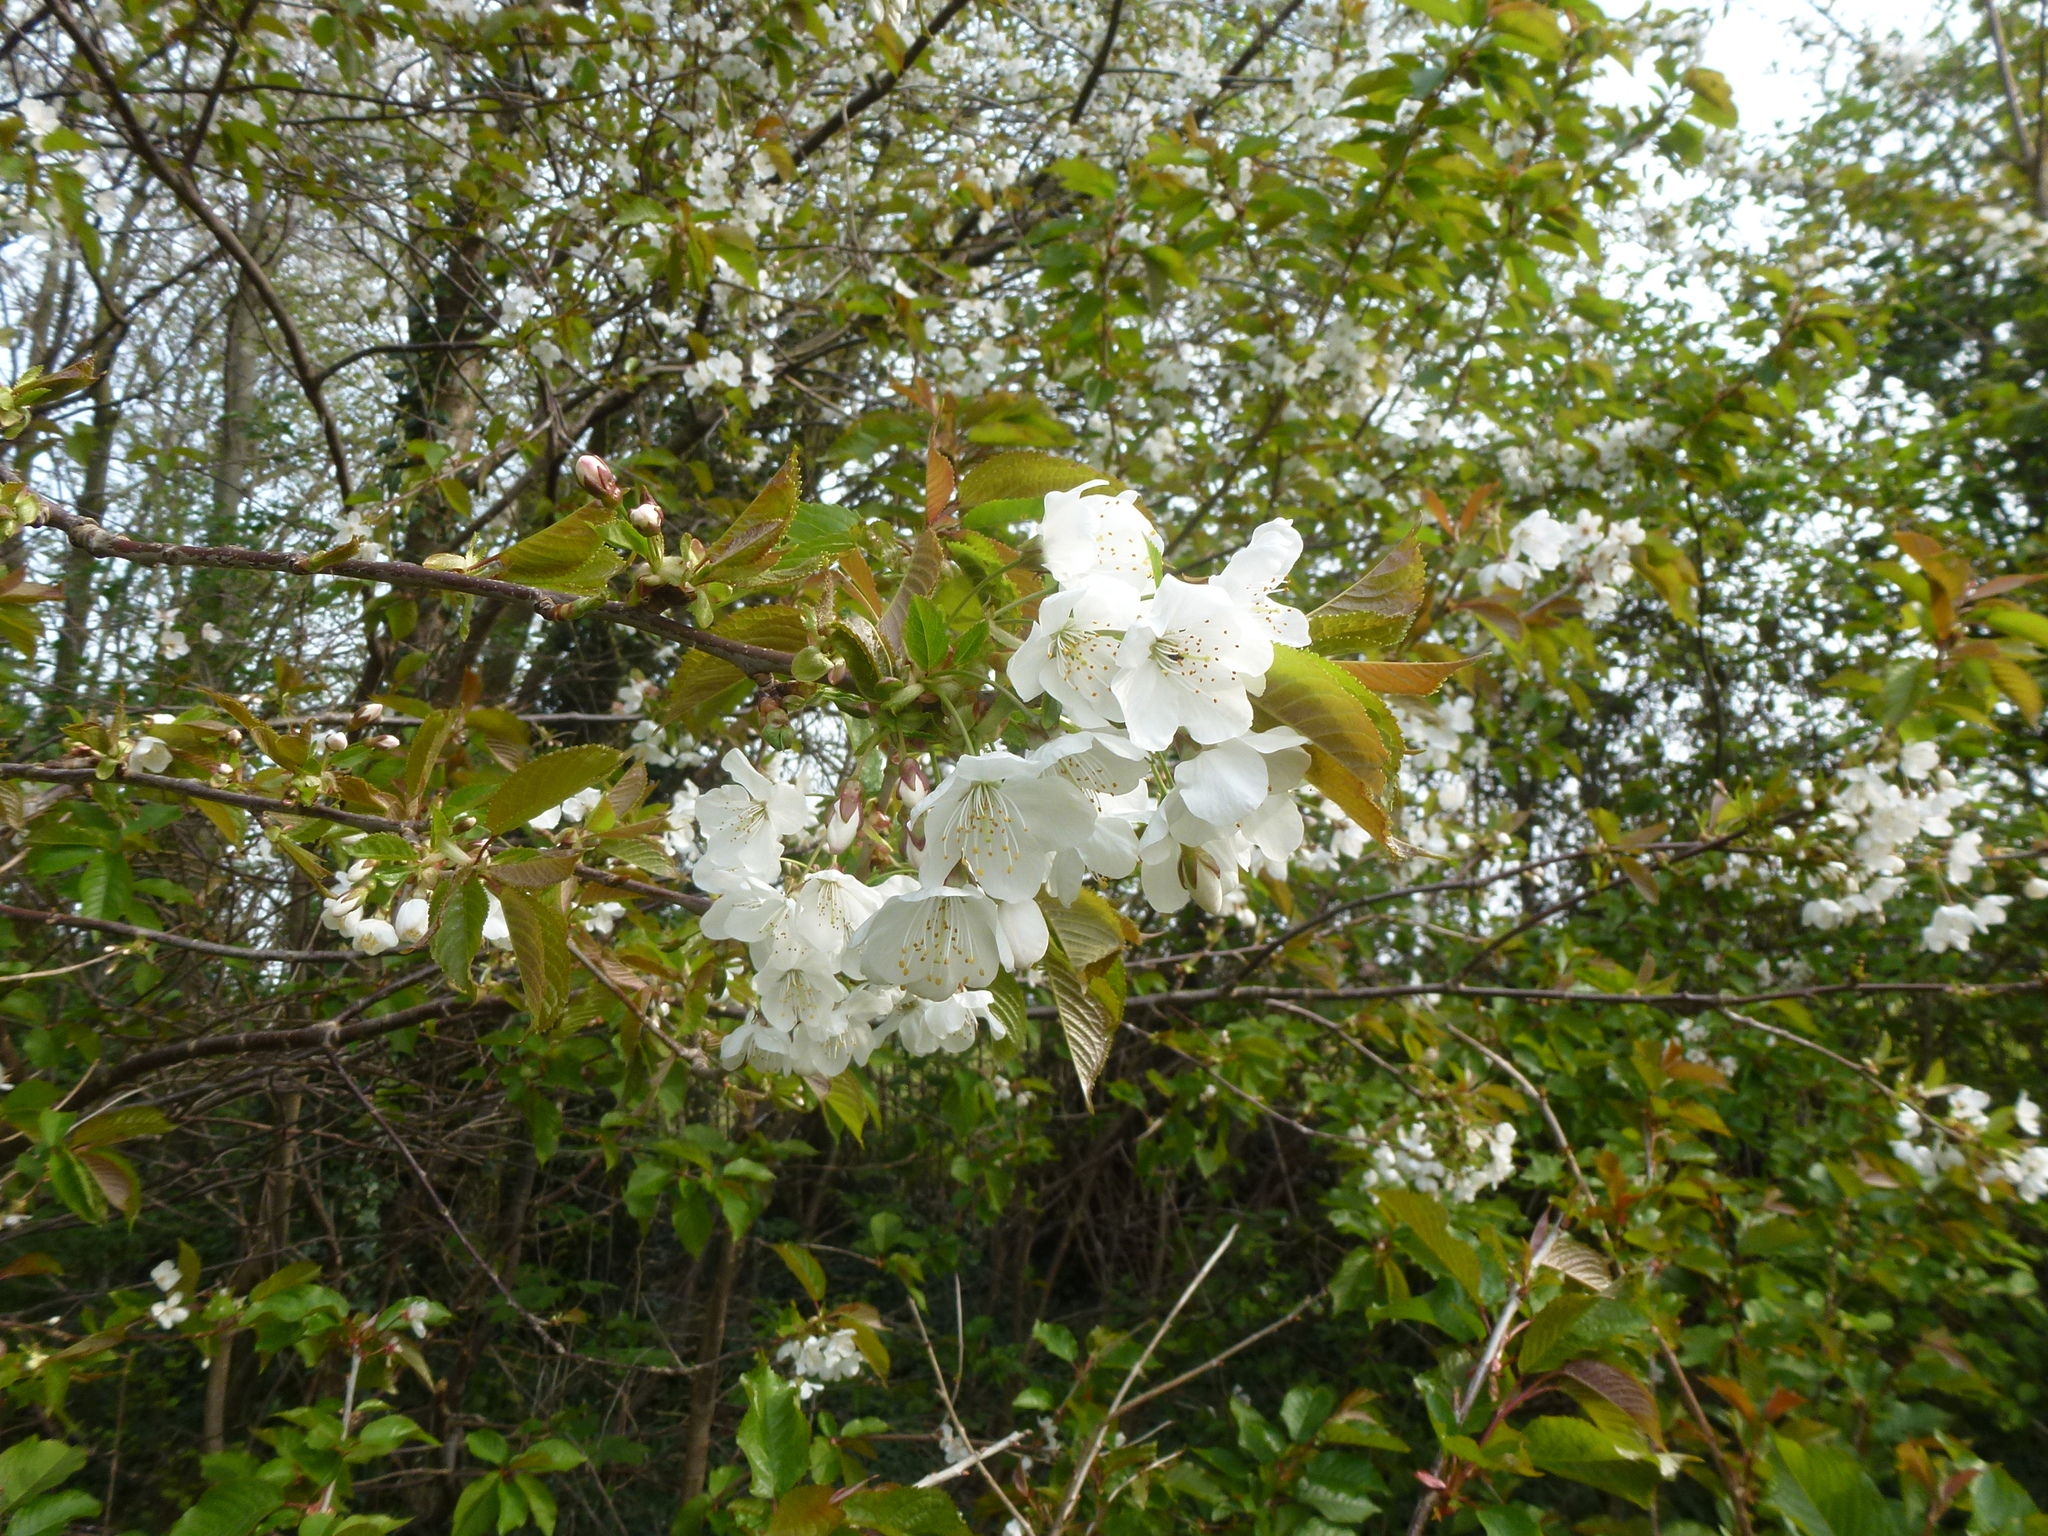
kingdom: Plantae
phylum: Tracheophyta
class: Magnoliopsida
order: Rosales
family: Rosaceae
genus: Prunus
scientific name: Prunus avium
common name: Sweet cherry
